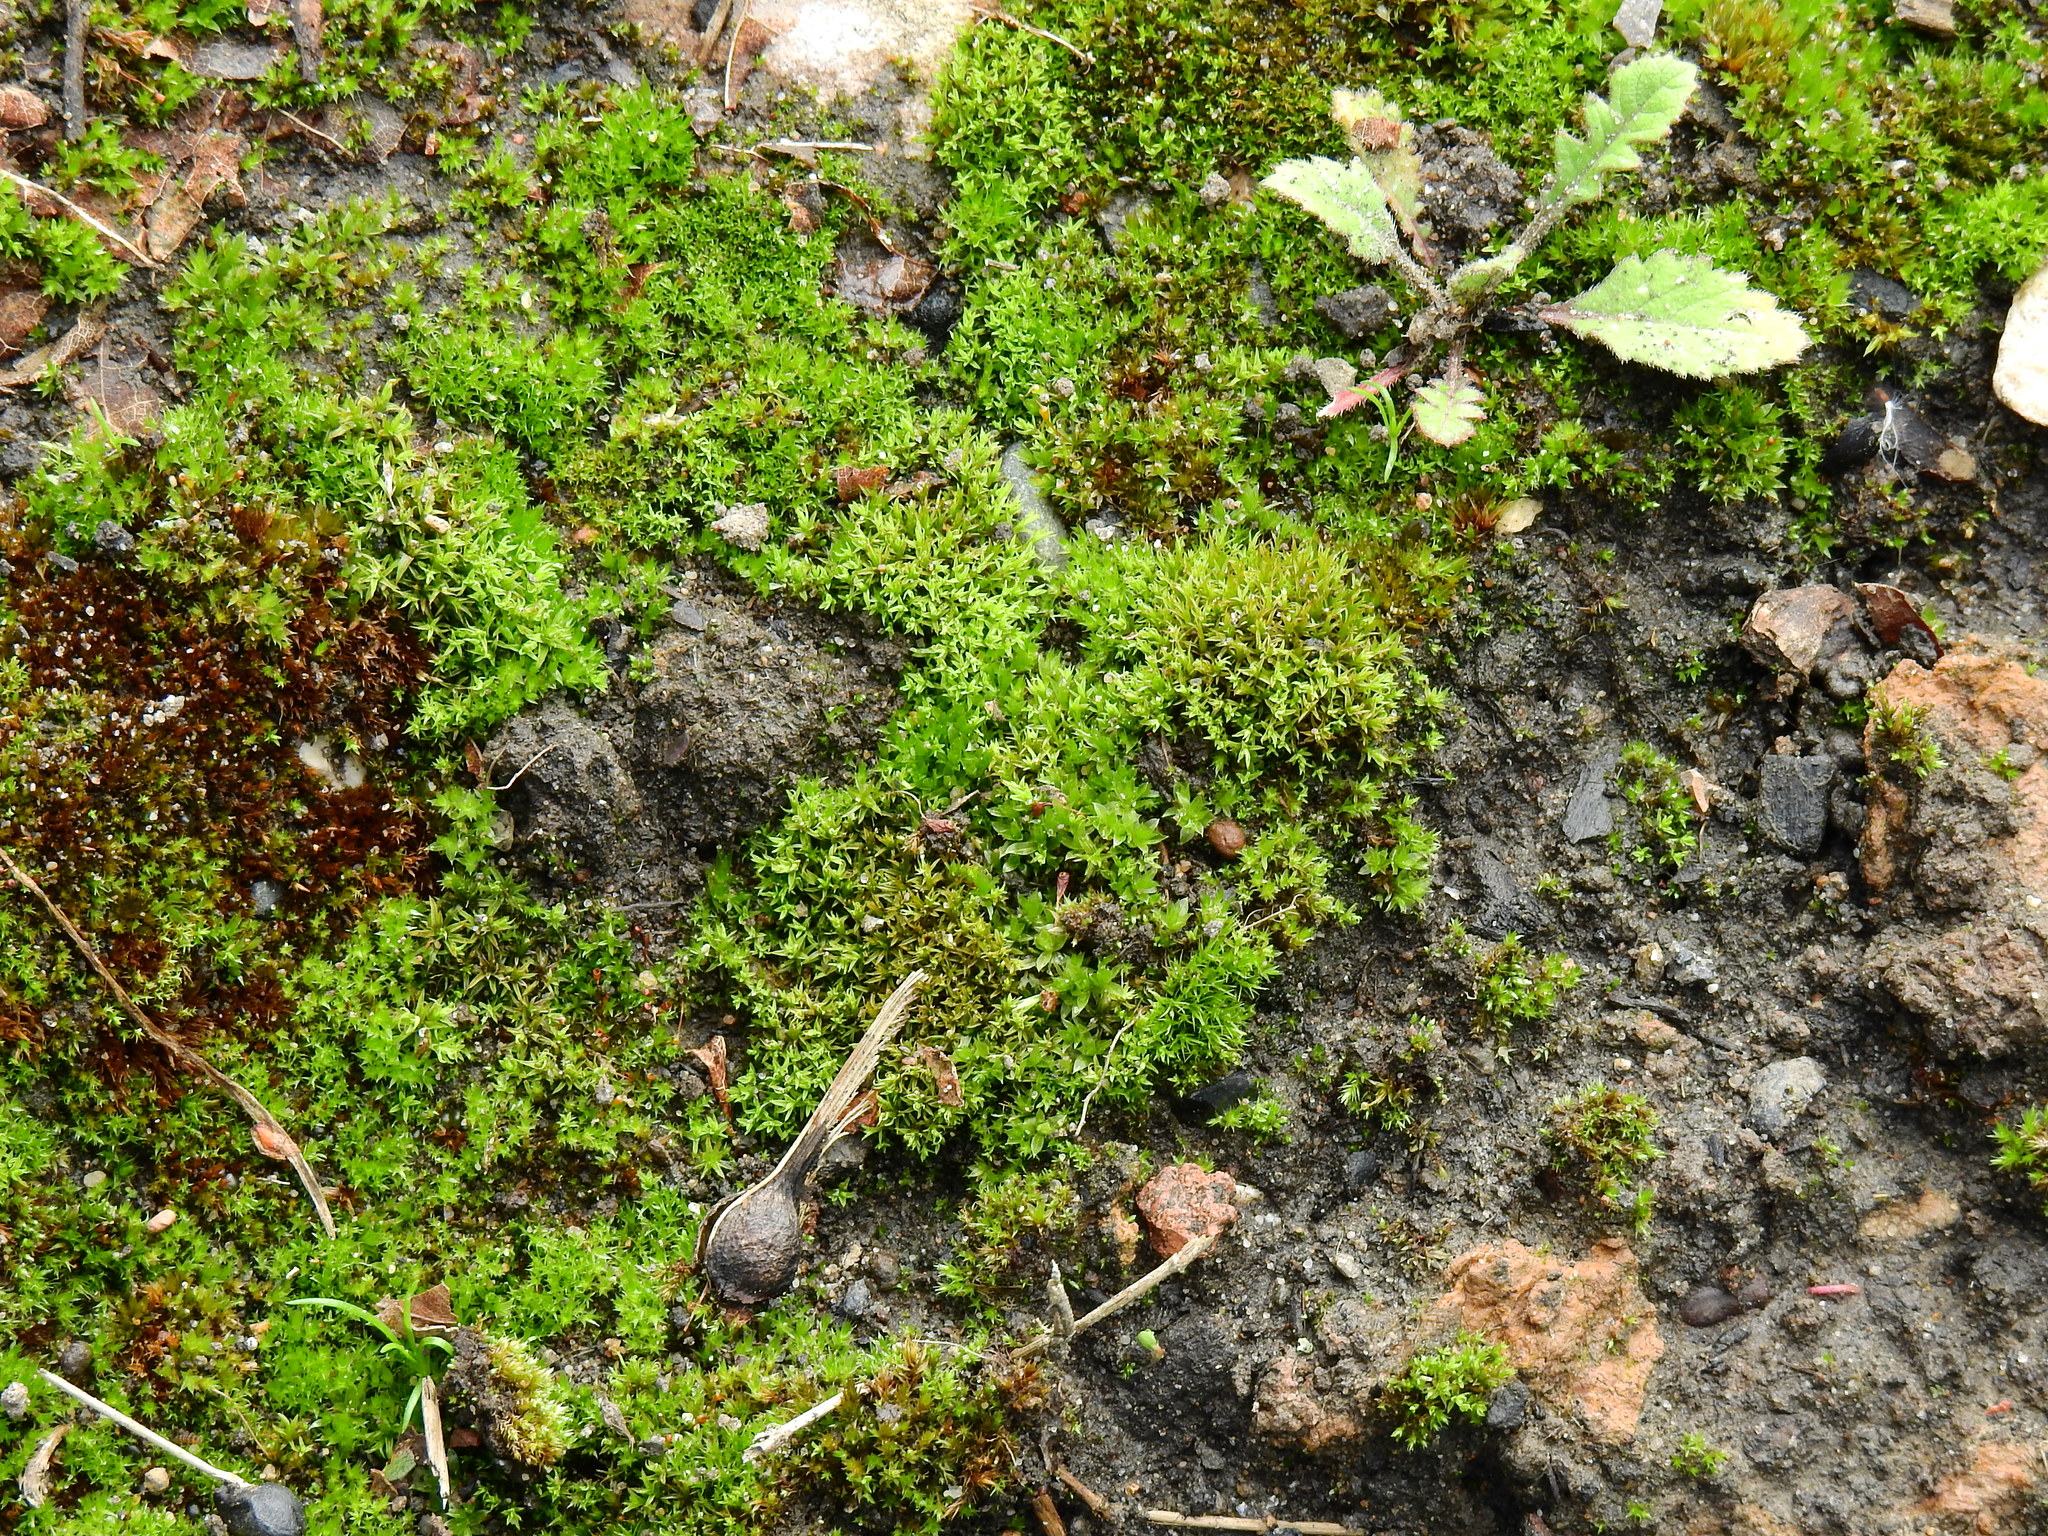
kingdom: Plantae
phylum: Bryophyta
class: Bryopsida
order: Dicranales
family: Ditrichaceae
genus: Ceratodon
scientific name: Ceratodon purpureus
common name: Redshank
